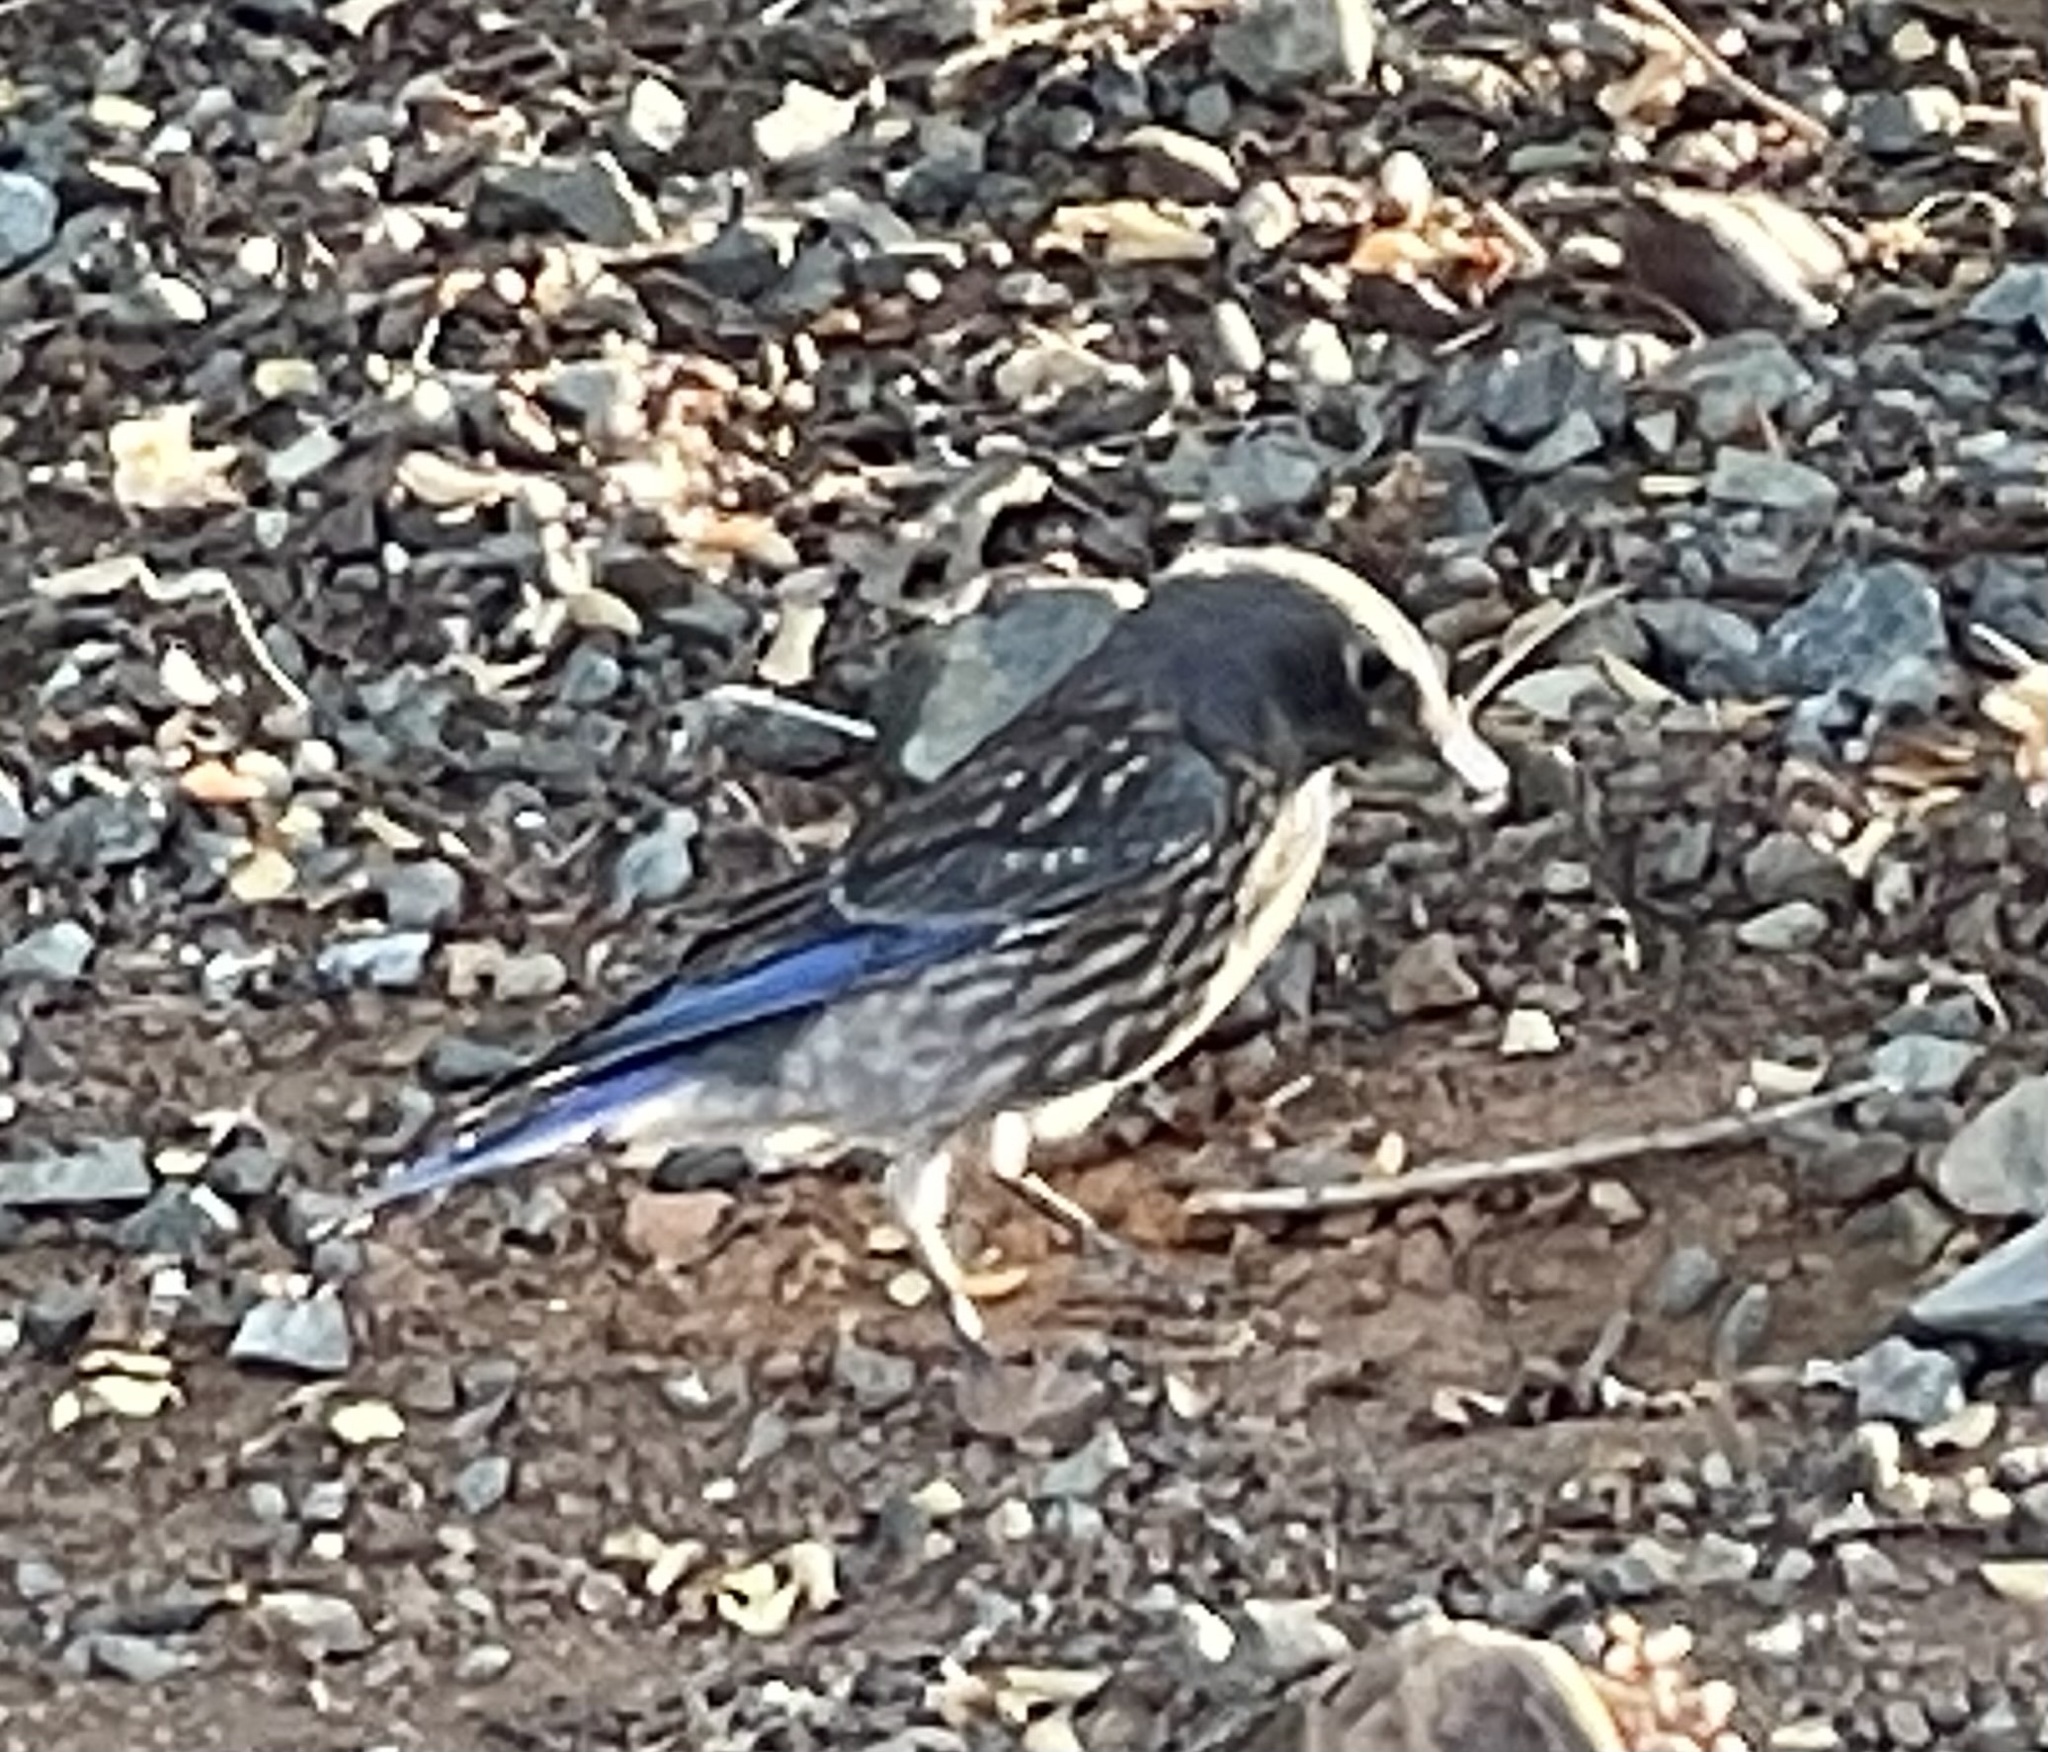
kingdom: Animalia
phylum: Chordata
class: Aves
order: Passeriformes
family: Turdidae
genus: Sialia
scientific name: Sialia mexicana
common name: Western bluebird
